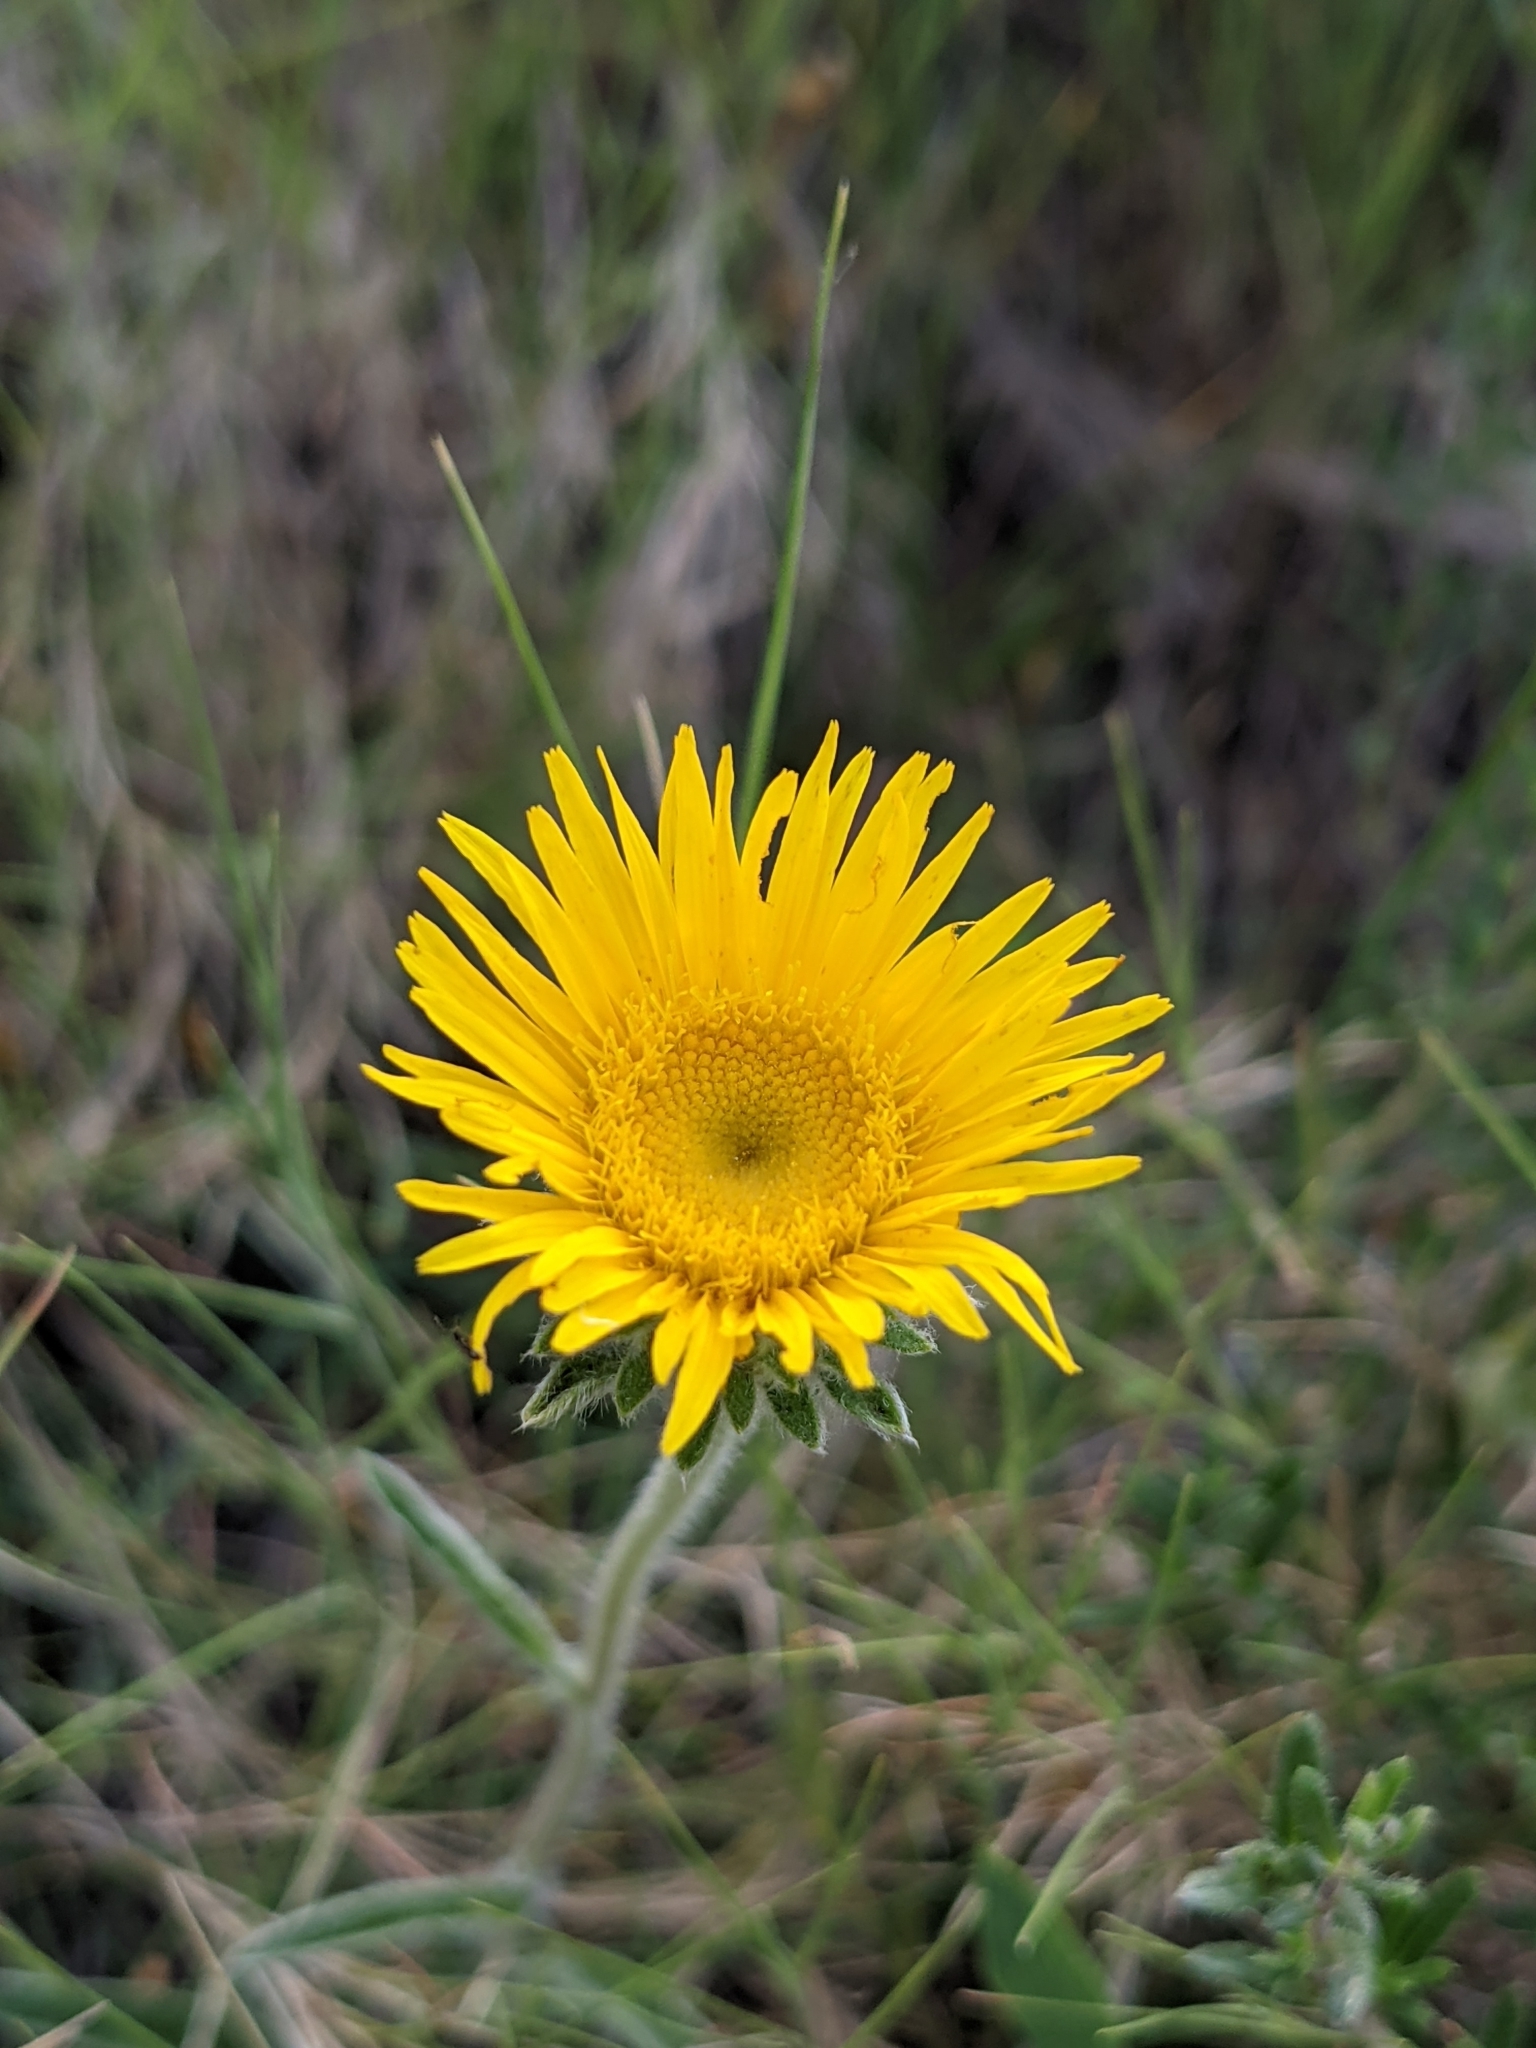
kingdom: Plantae
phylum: Tracheophyta
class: Magnoliopsida
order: Asterales
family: Asteraceae
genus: Pentanema
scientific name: Pentanema montanum
